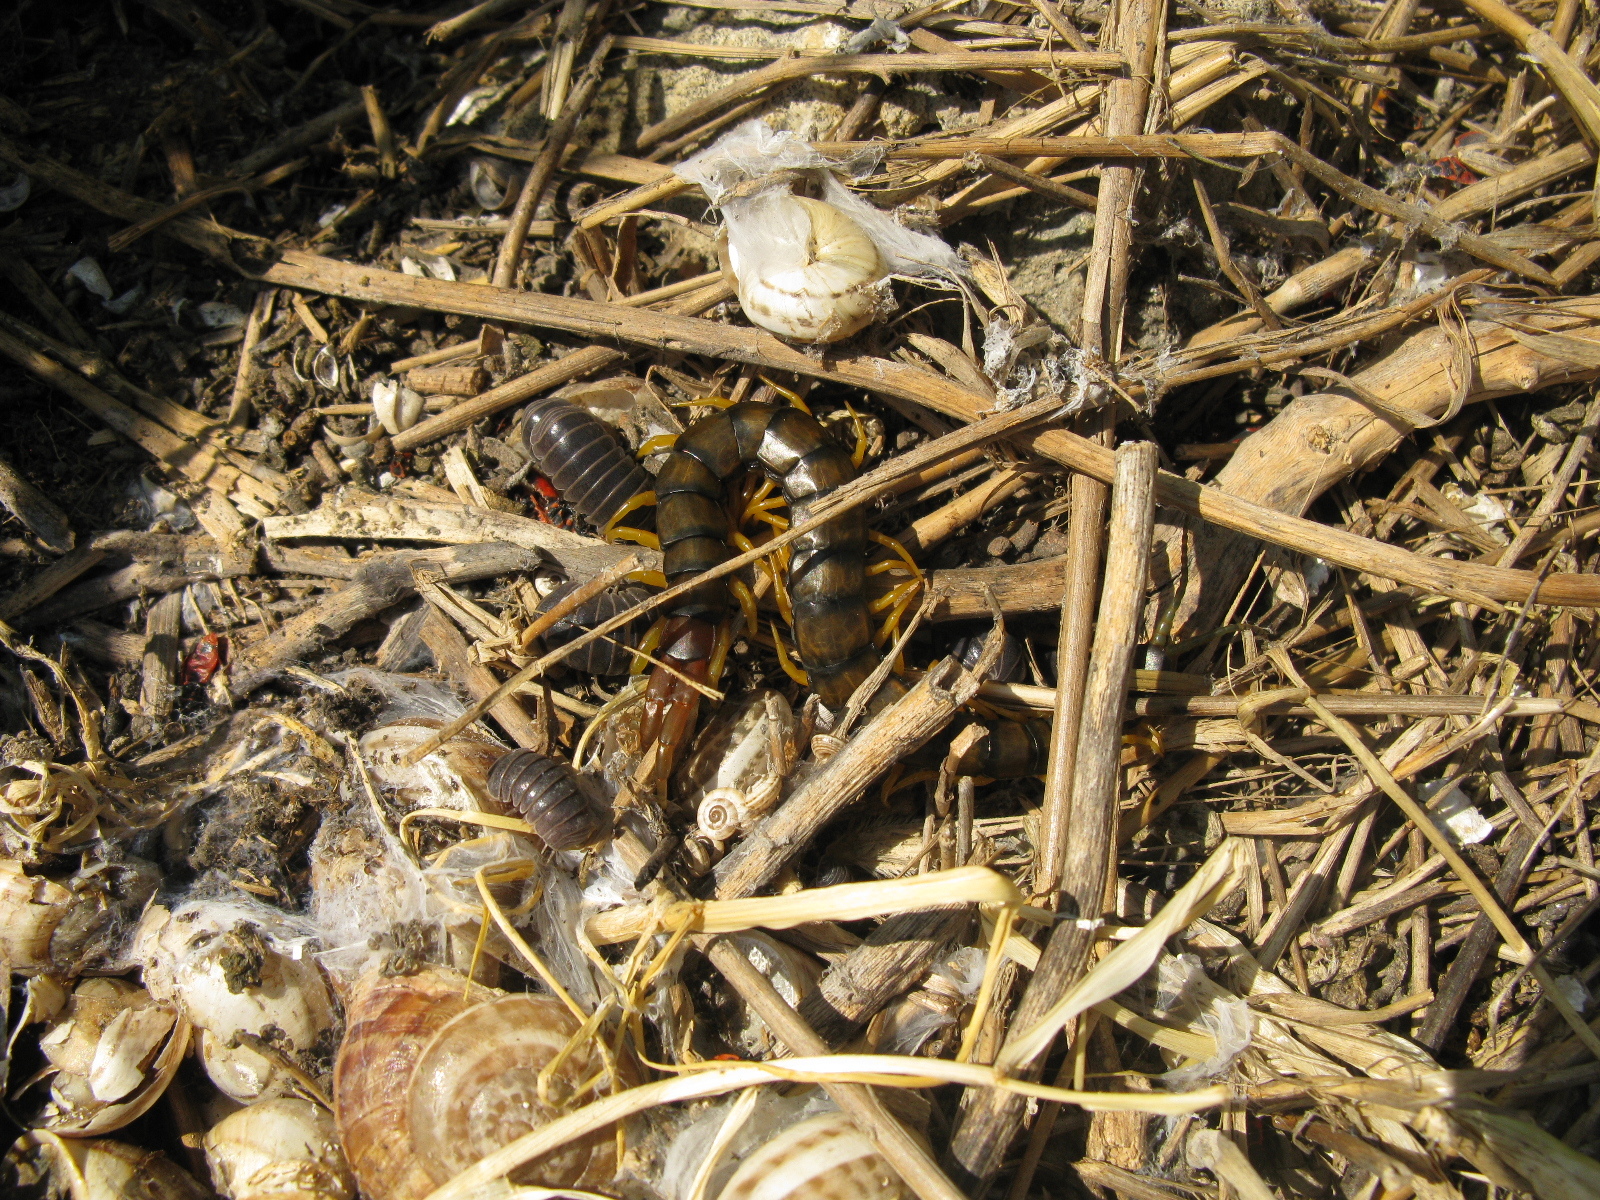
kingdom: Animalia
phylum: Arthropoda
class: Chilopoda
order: Scolopendromorpha
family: Scolopendridae
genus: Scolopendra
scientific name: Scolopendra cingulata
